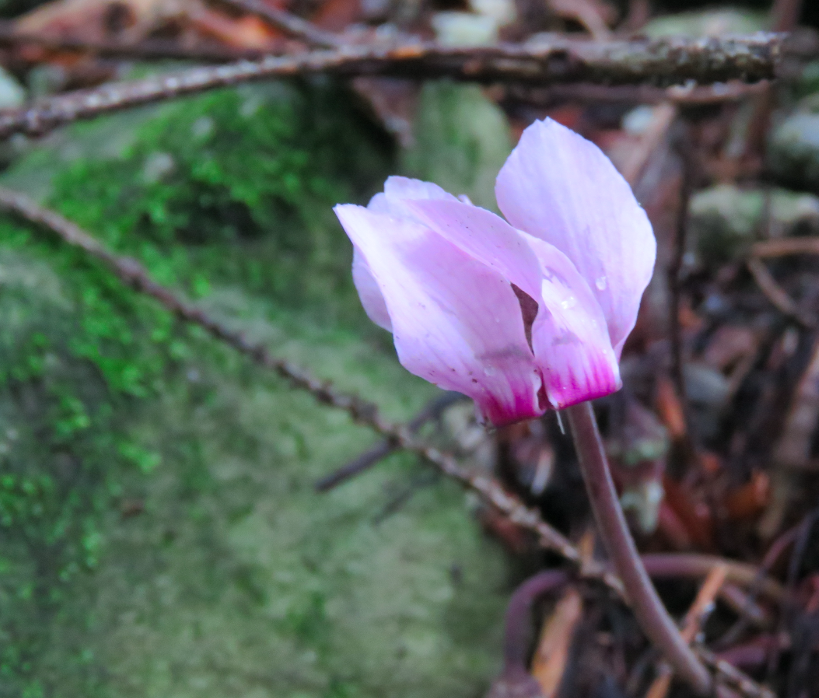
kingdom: Plantae
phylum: Tracheophyta
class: Magnoliopsida
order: Ericales
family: Primulaceae
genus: Cyclamen
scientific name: Cyclamen purpurascens
